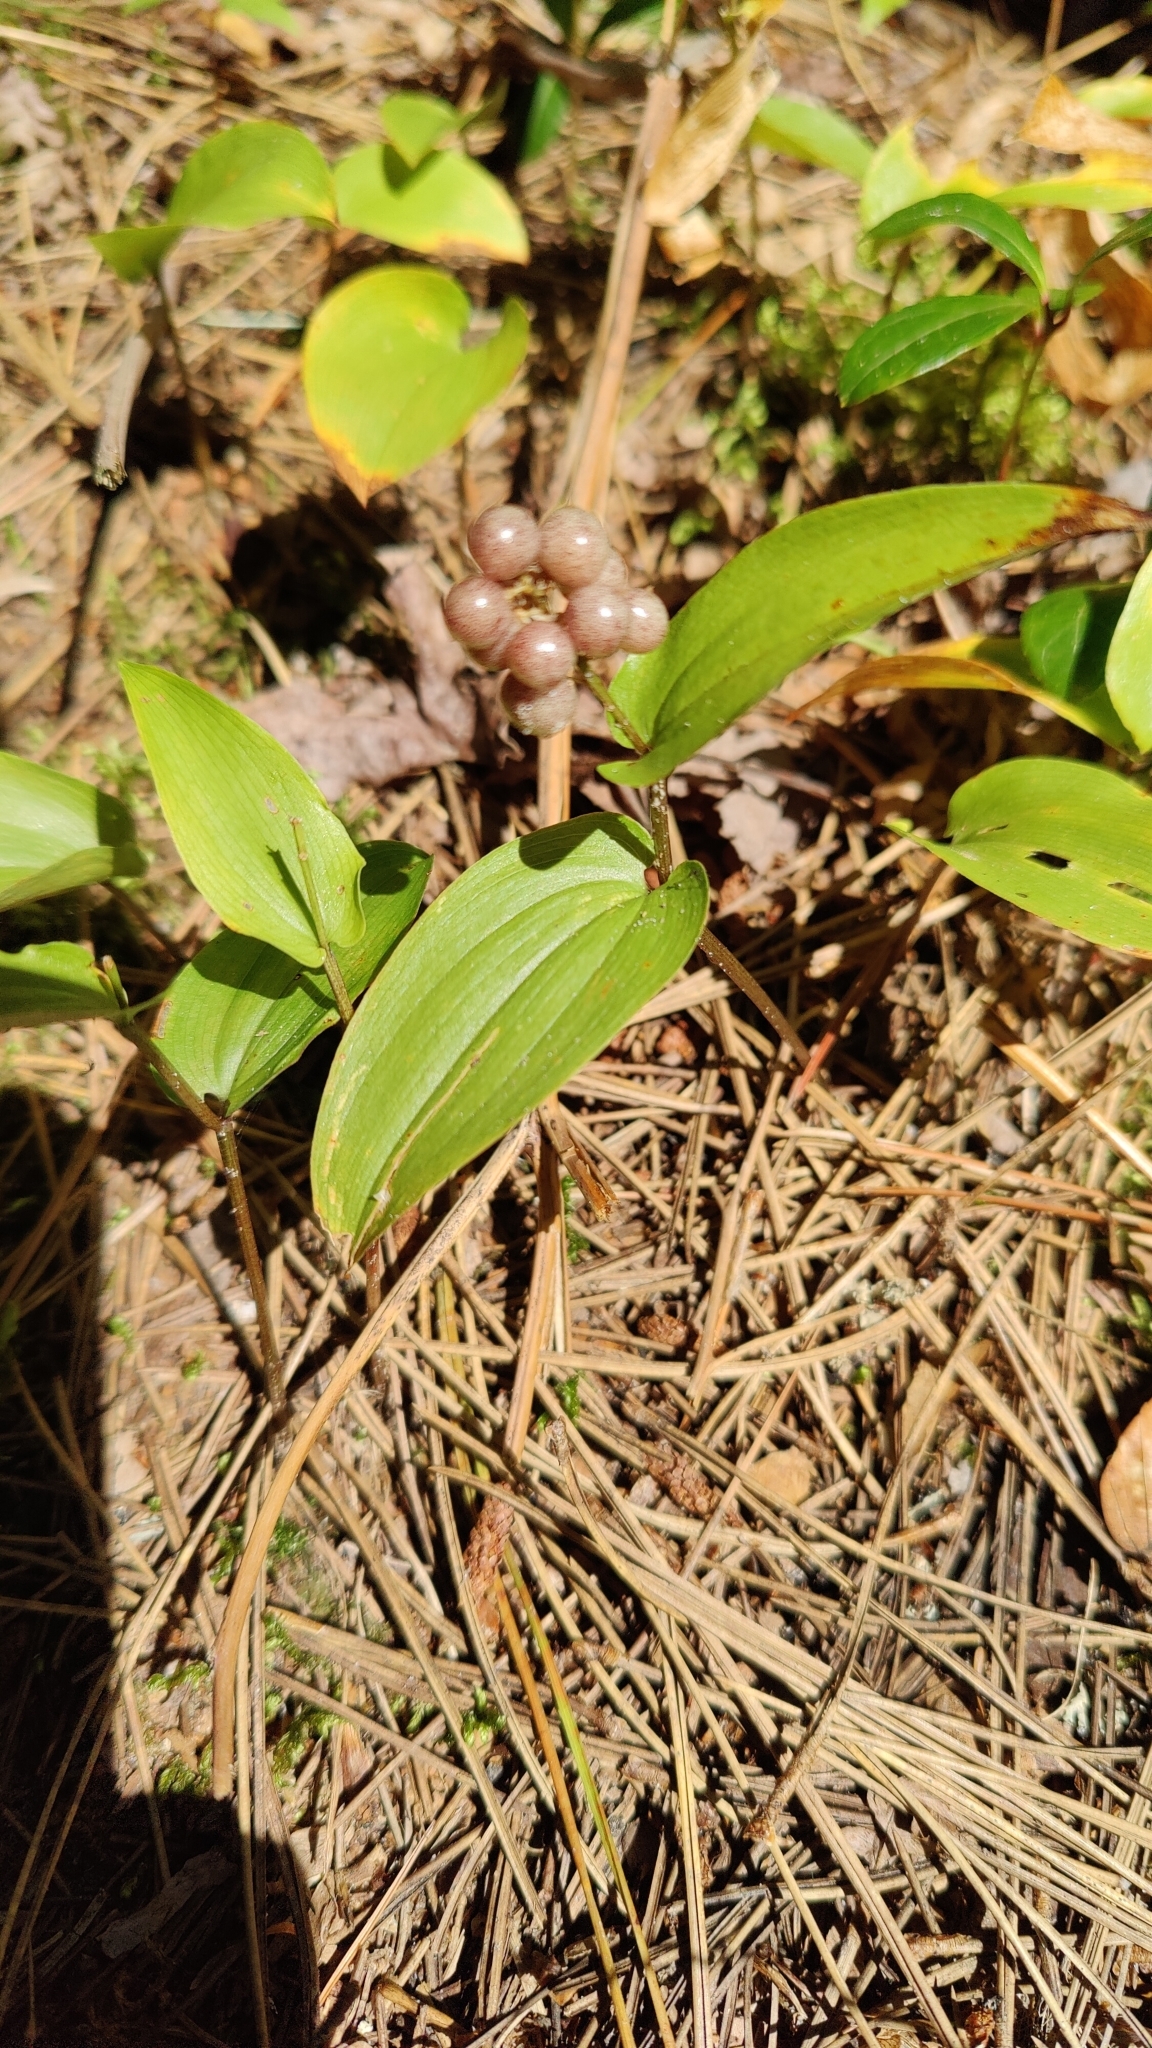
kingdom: Plantae
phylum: Tracheophyta
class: Liliopsida
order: Asparagales
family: Asparagaceae
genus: Maianthemum
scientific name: Maianthemum canadense
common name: False lily-of-the-valley
